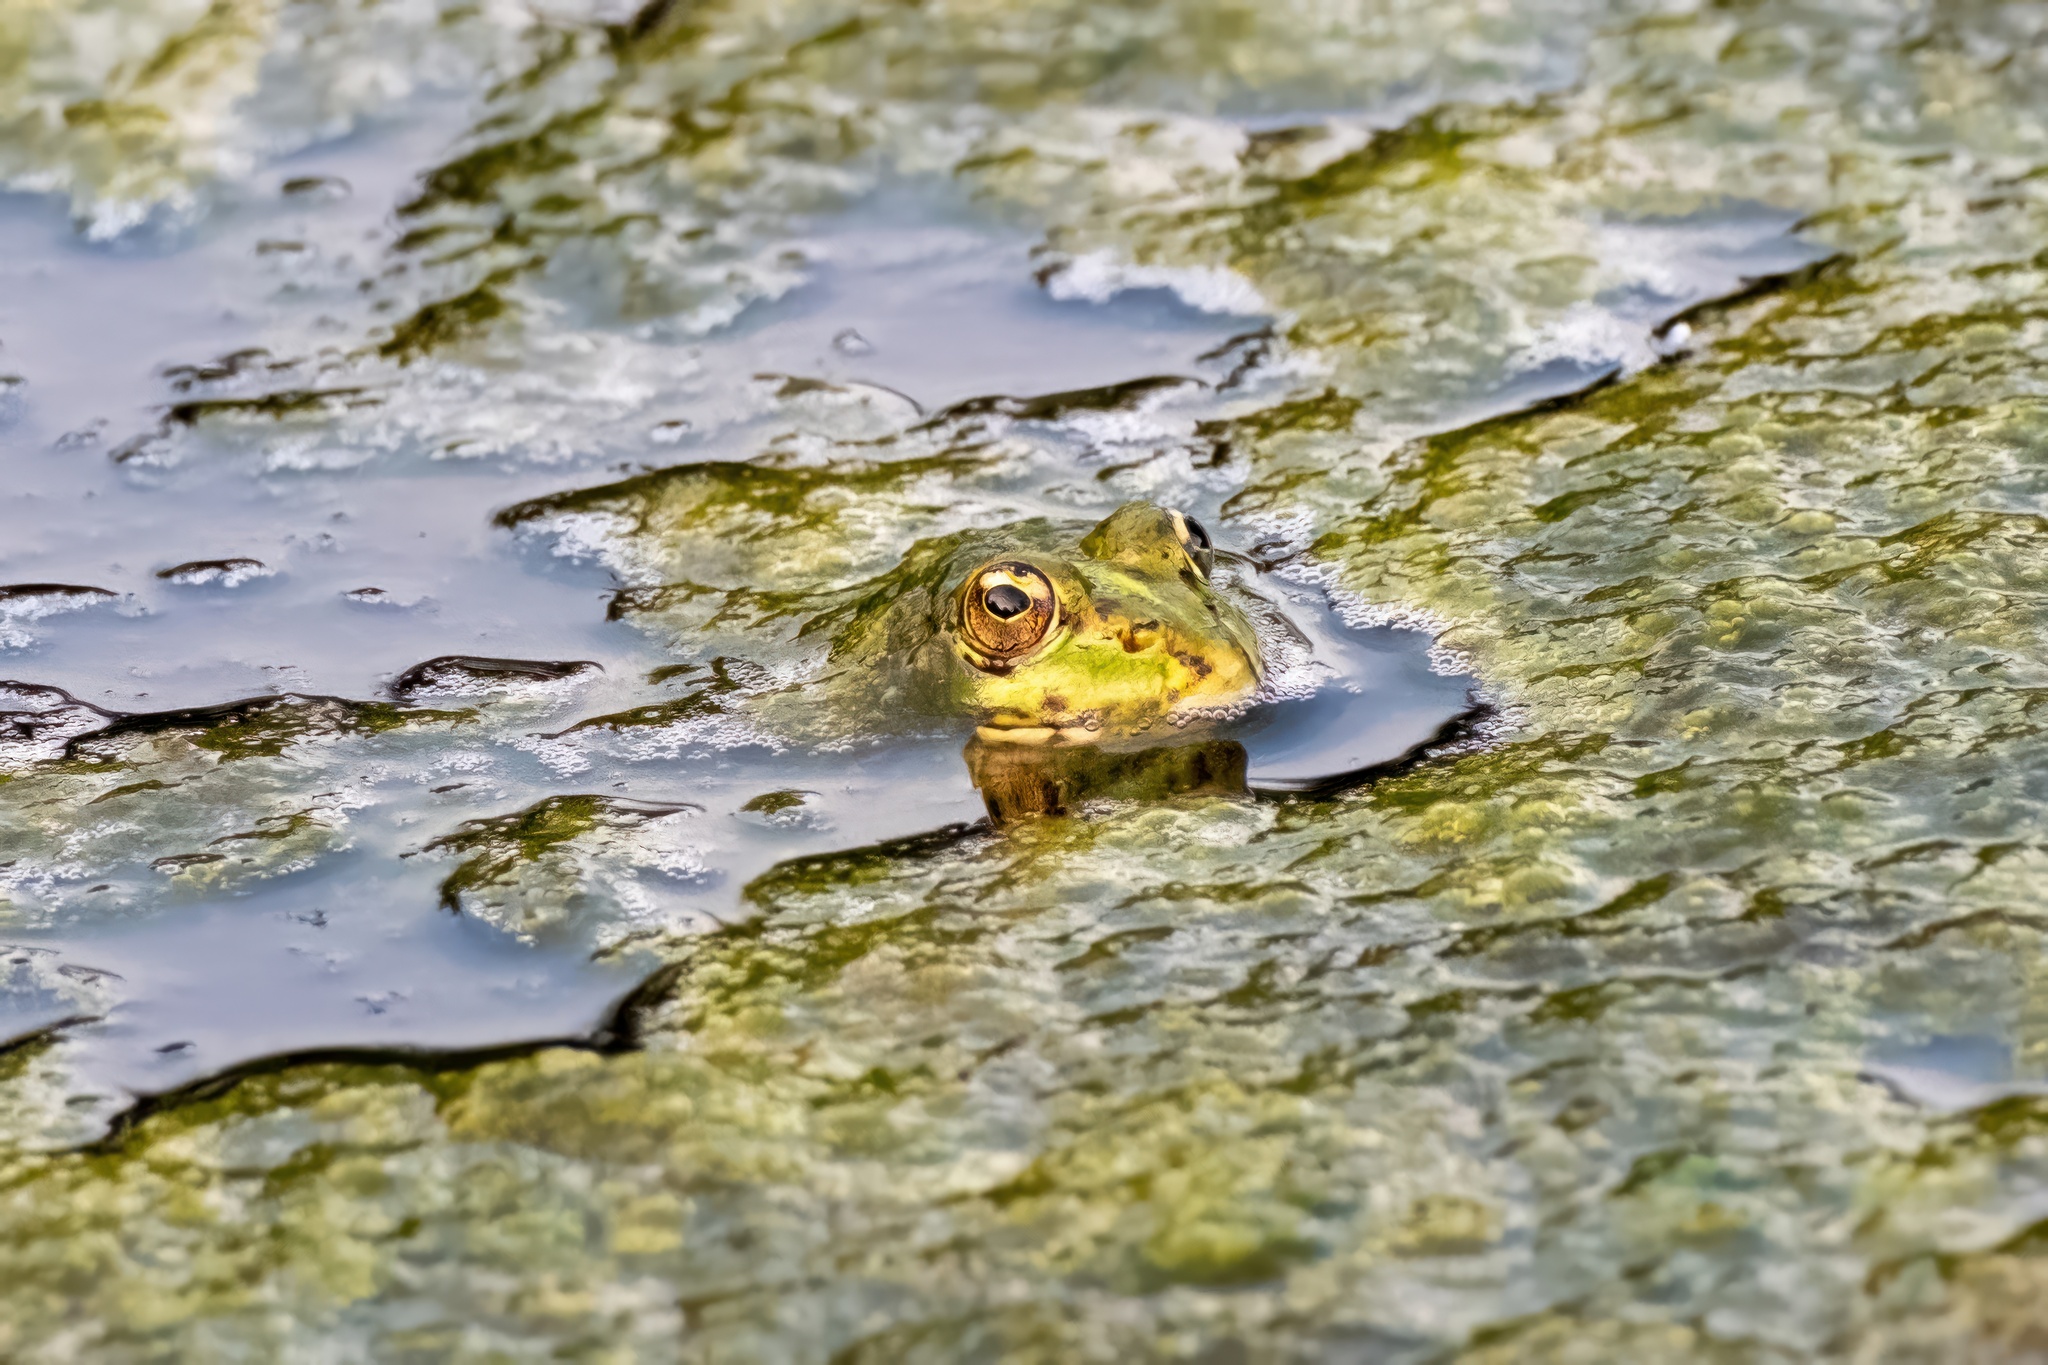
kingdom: Animalia
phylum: Chordata
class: Amphibia
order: Anura
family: Ranidae
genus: Pelophylax
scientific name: Pelophylax perezi
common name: Perez's frog
